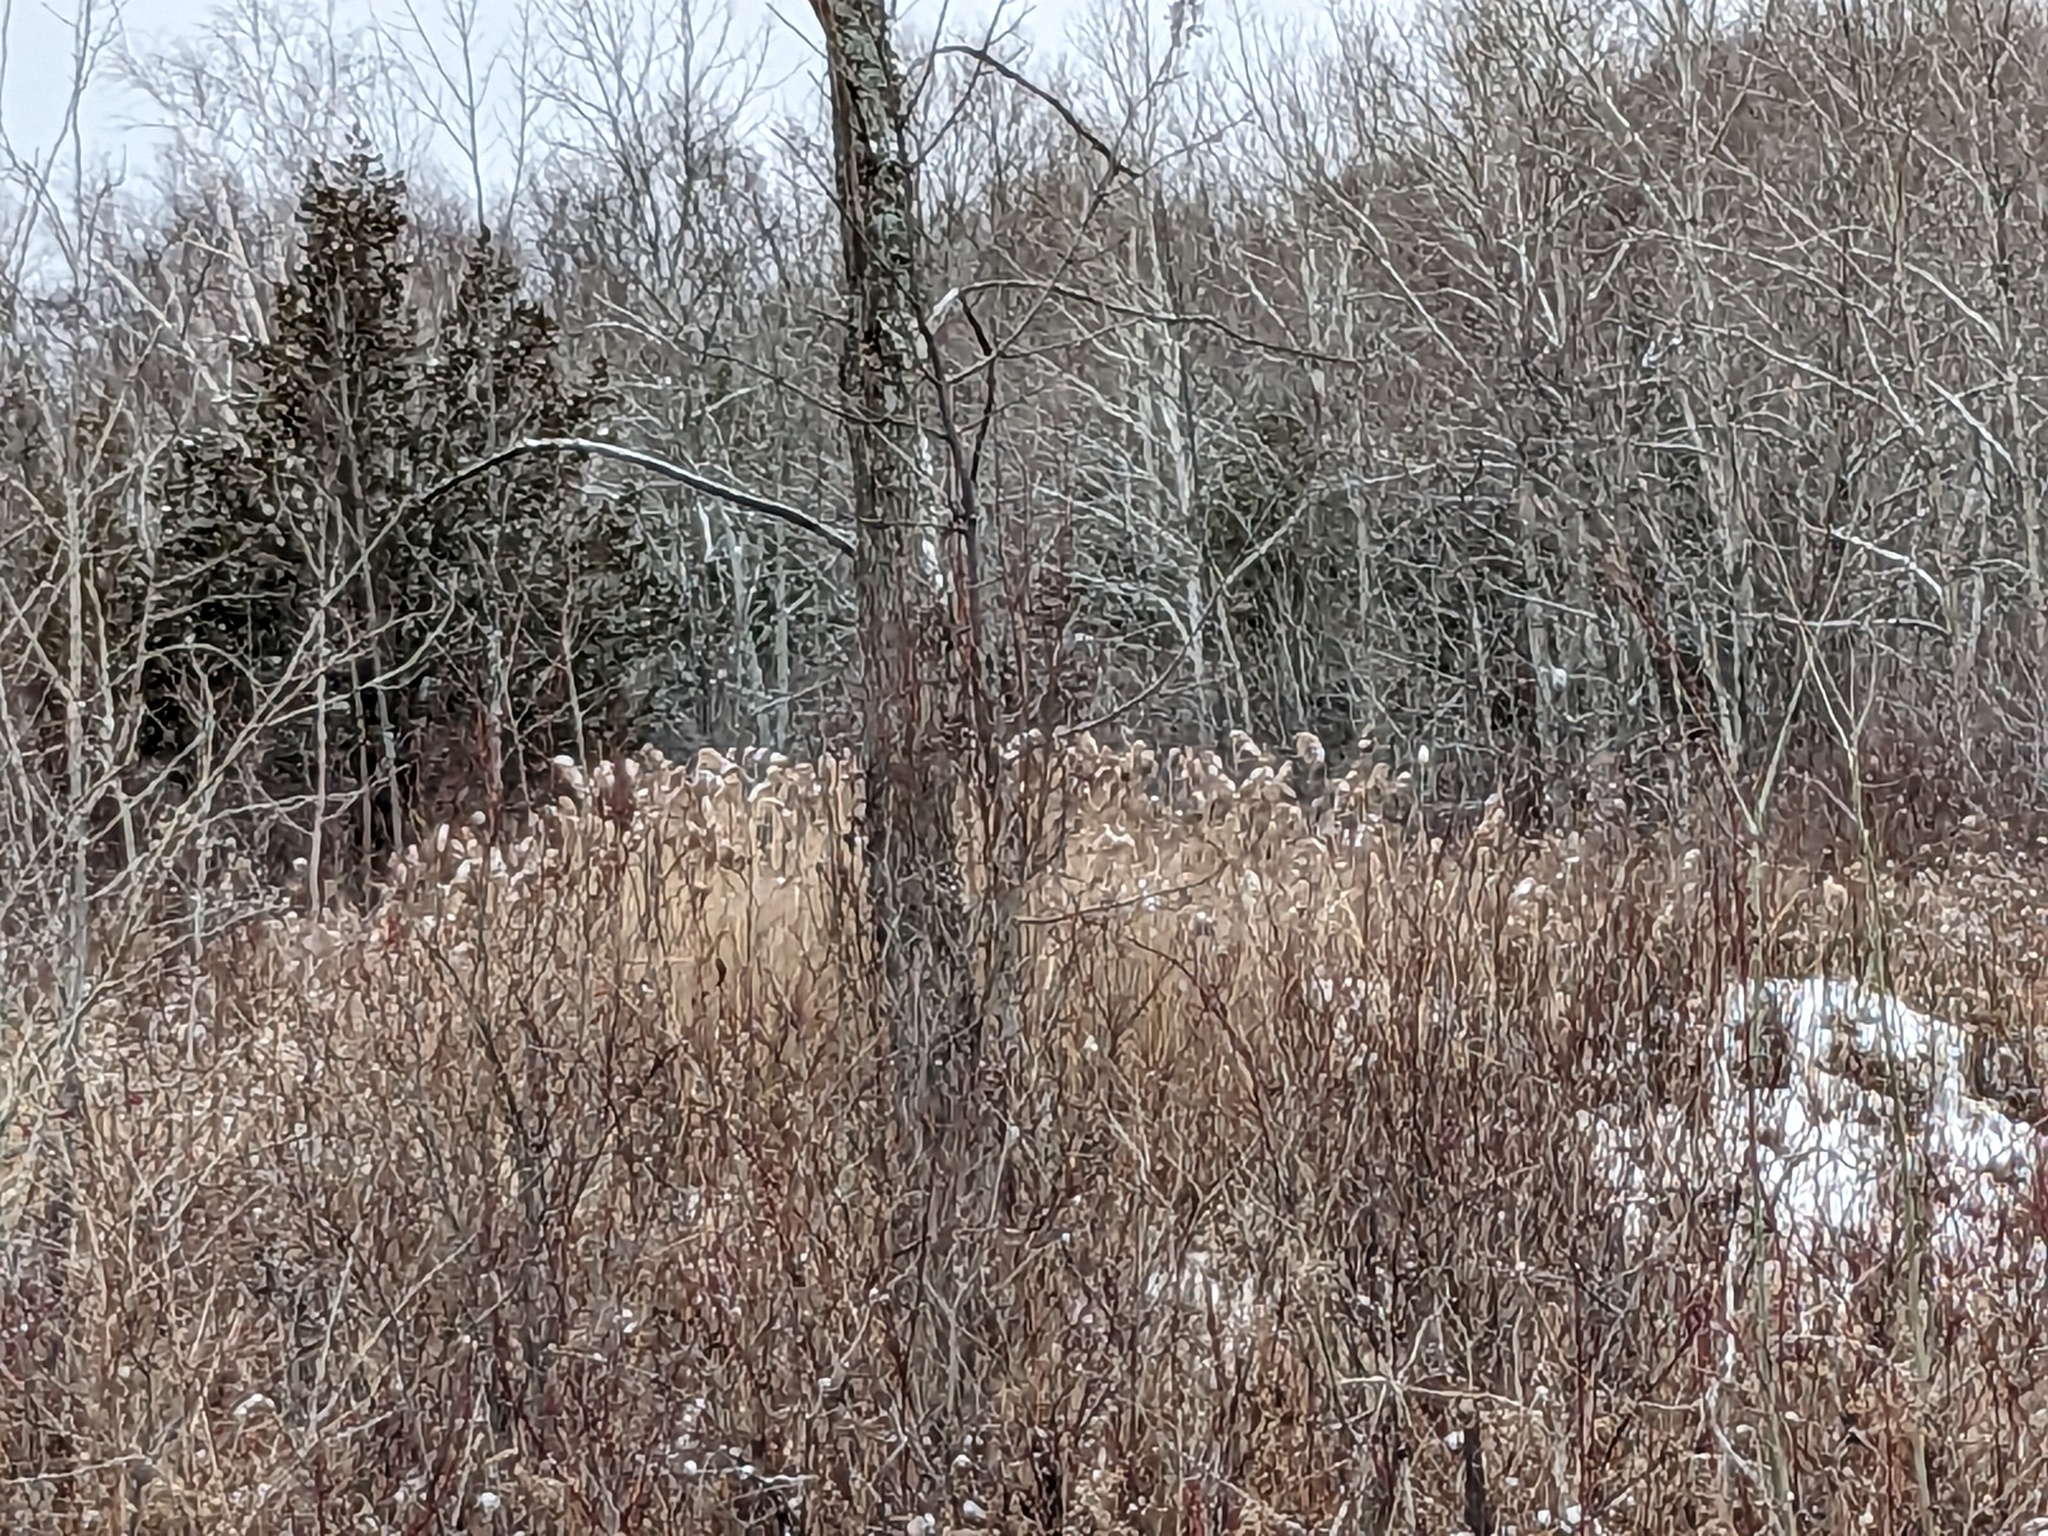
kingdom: Plantae
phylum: Tracheophyta
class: Liliopsida
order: Poales
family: Poaceae
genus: Phragmites
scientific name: Phragmites australis
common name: Common reed
